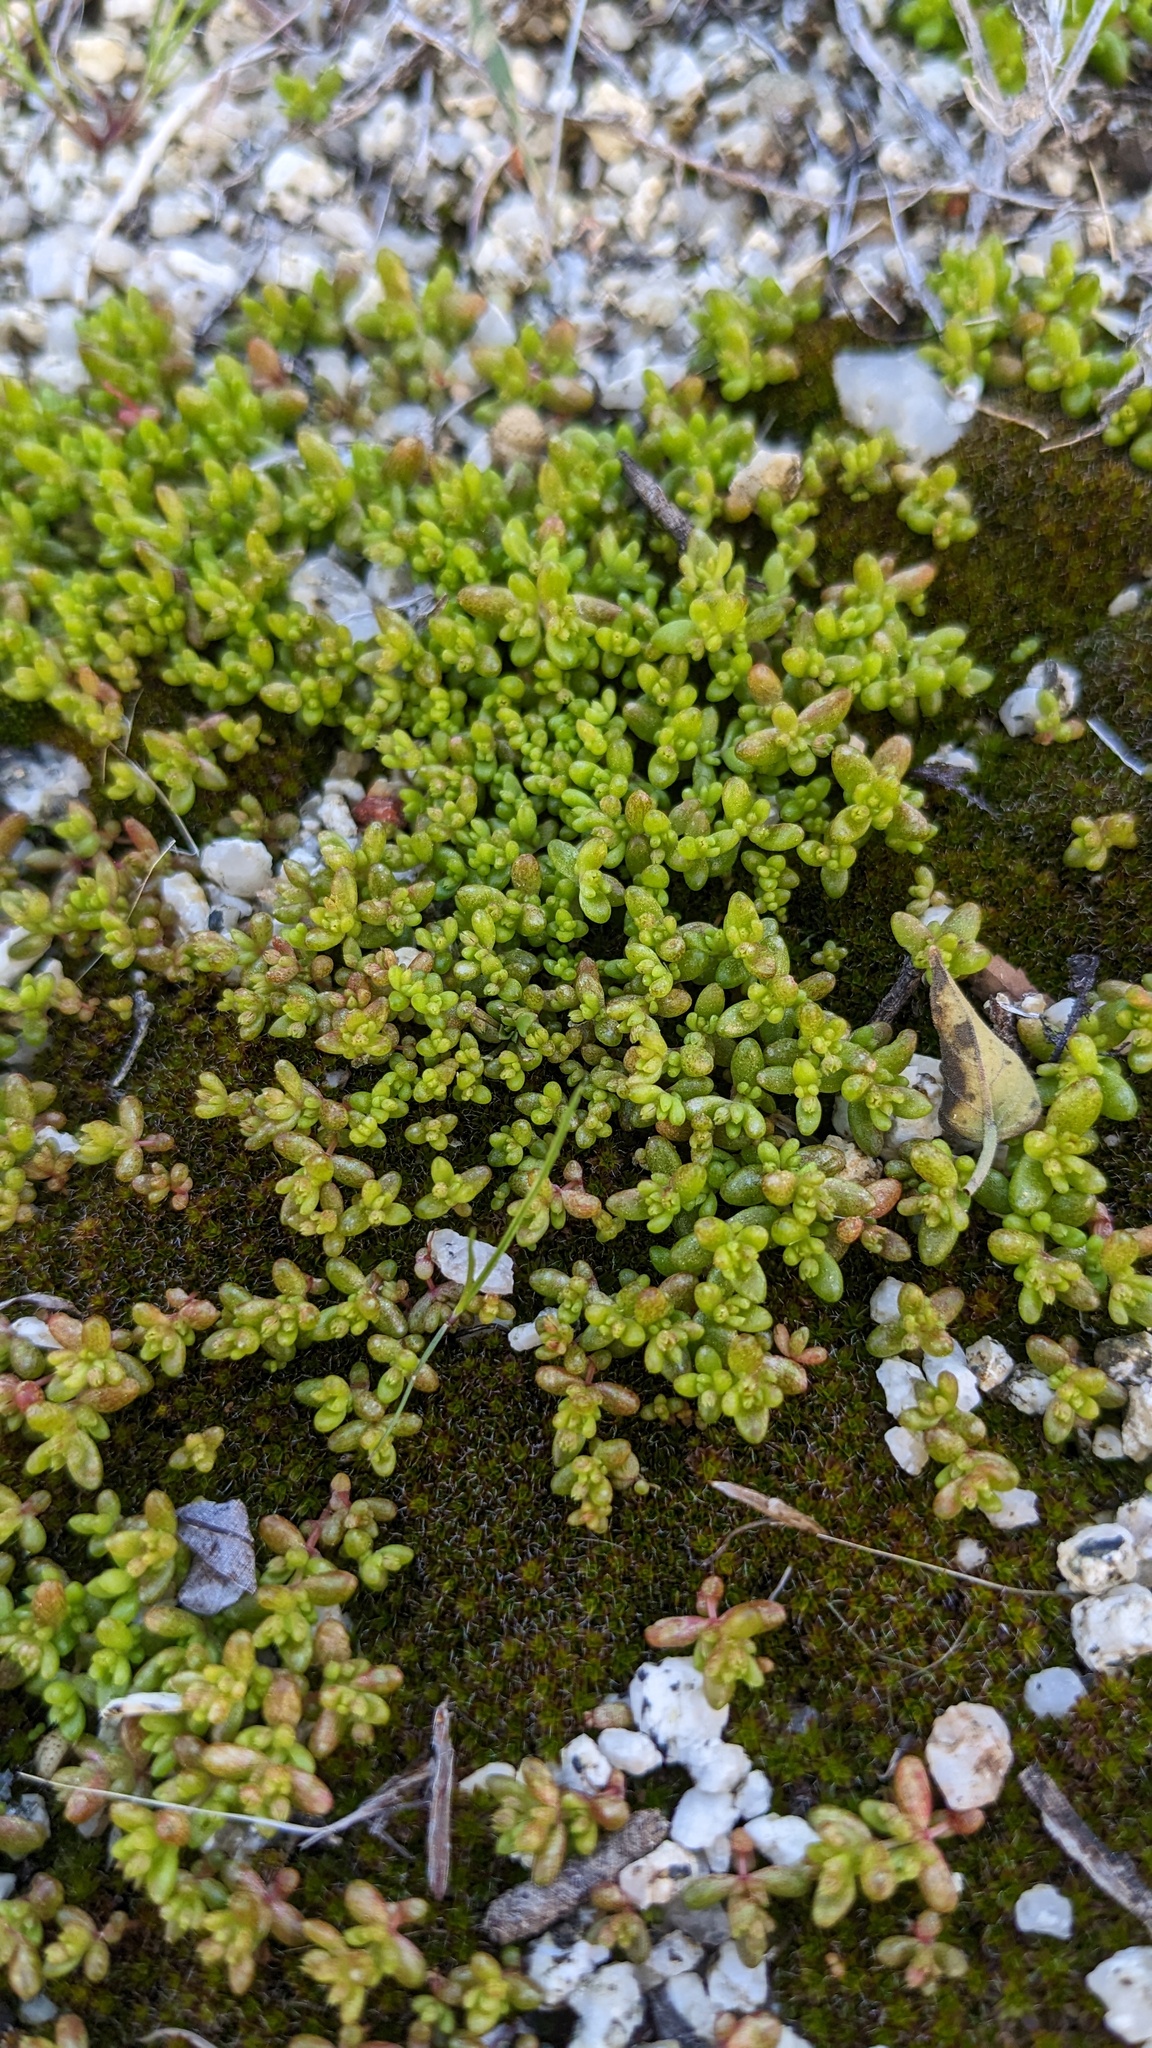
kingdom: Plantae
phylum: Tracheophyta
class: Magnoliopsida
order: Saxifragales
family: Crassulaceae
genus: Crassula
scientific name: Crassula connata
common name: Erect pygmyweed
